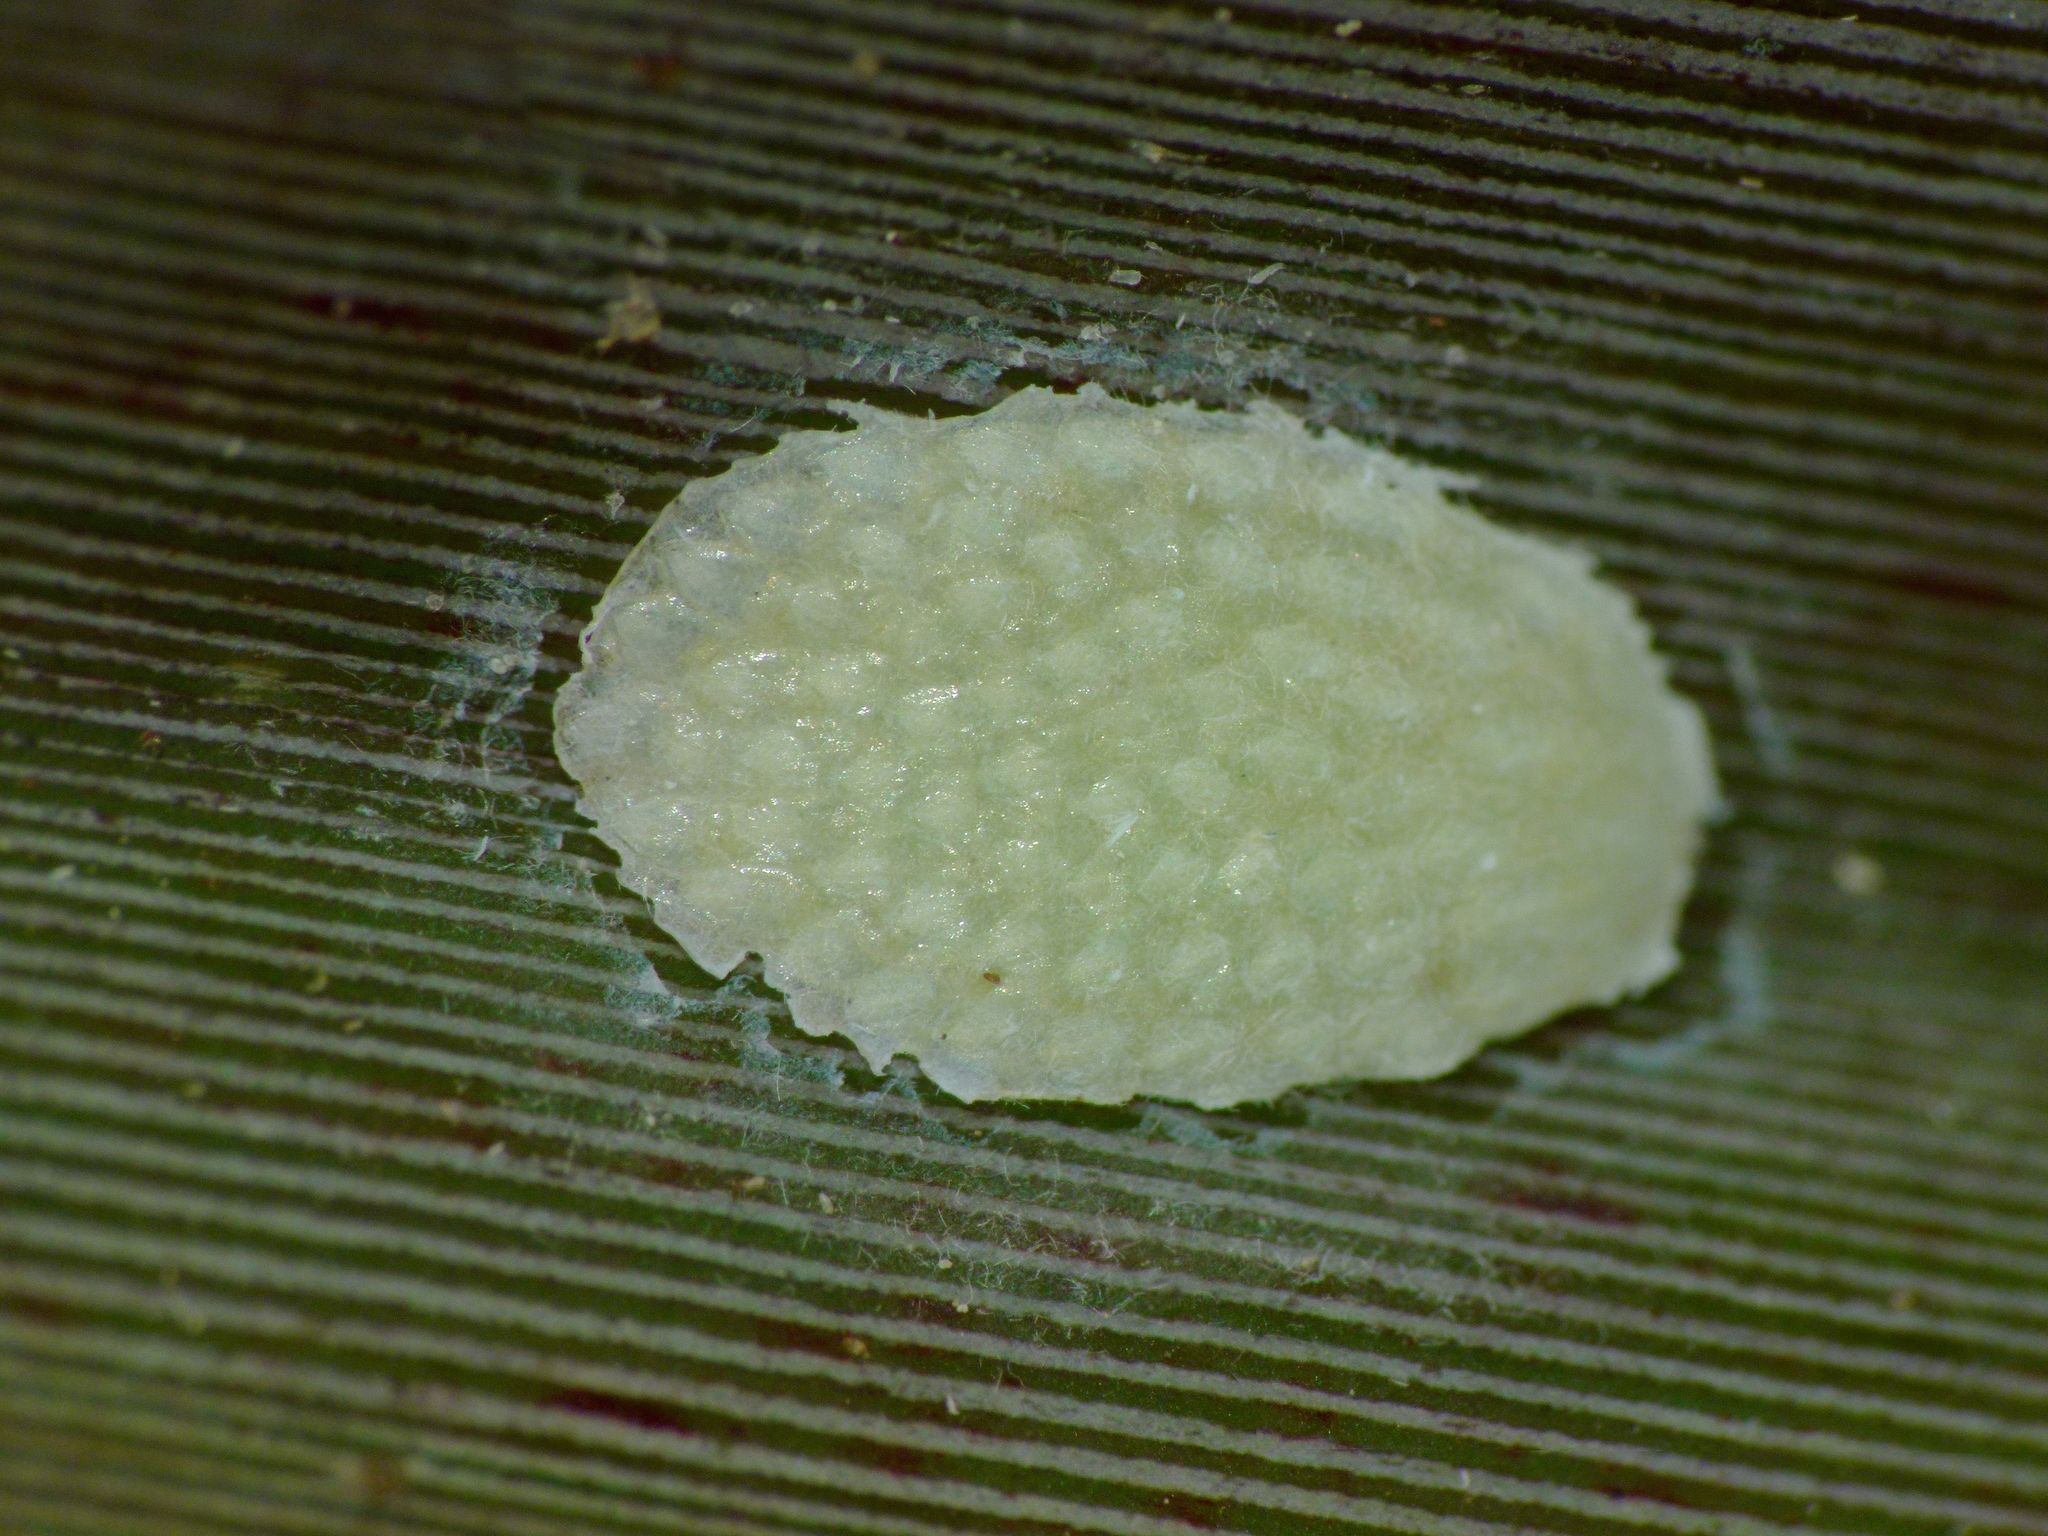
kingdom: Animalia
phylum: Arthropoda
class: Insecta
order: Hemiptera
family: Flatidae
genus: Siphanta
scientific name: Siphanta acuta
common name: Torpedo bug
